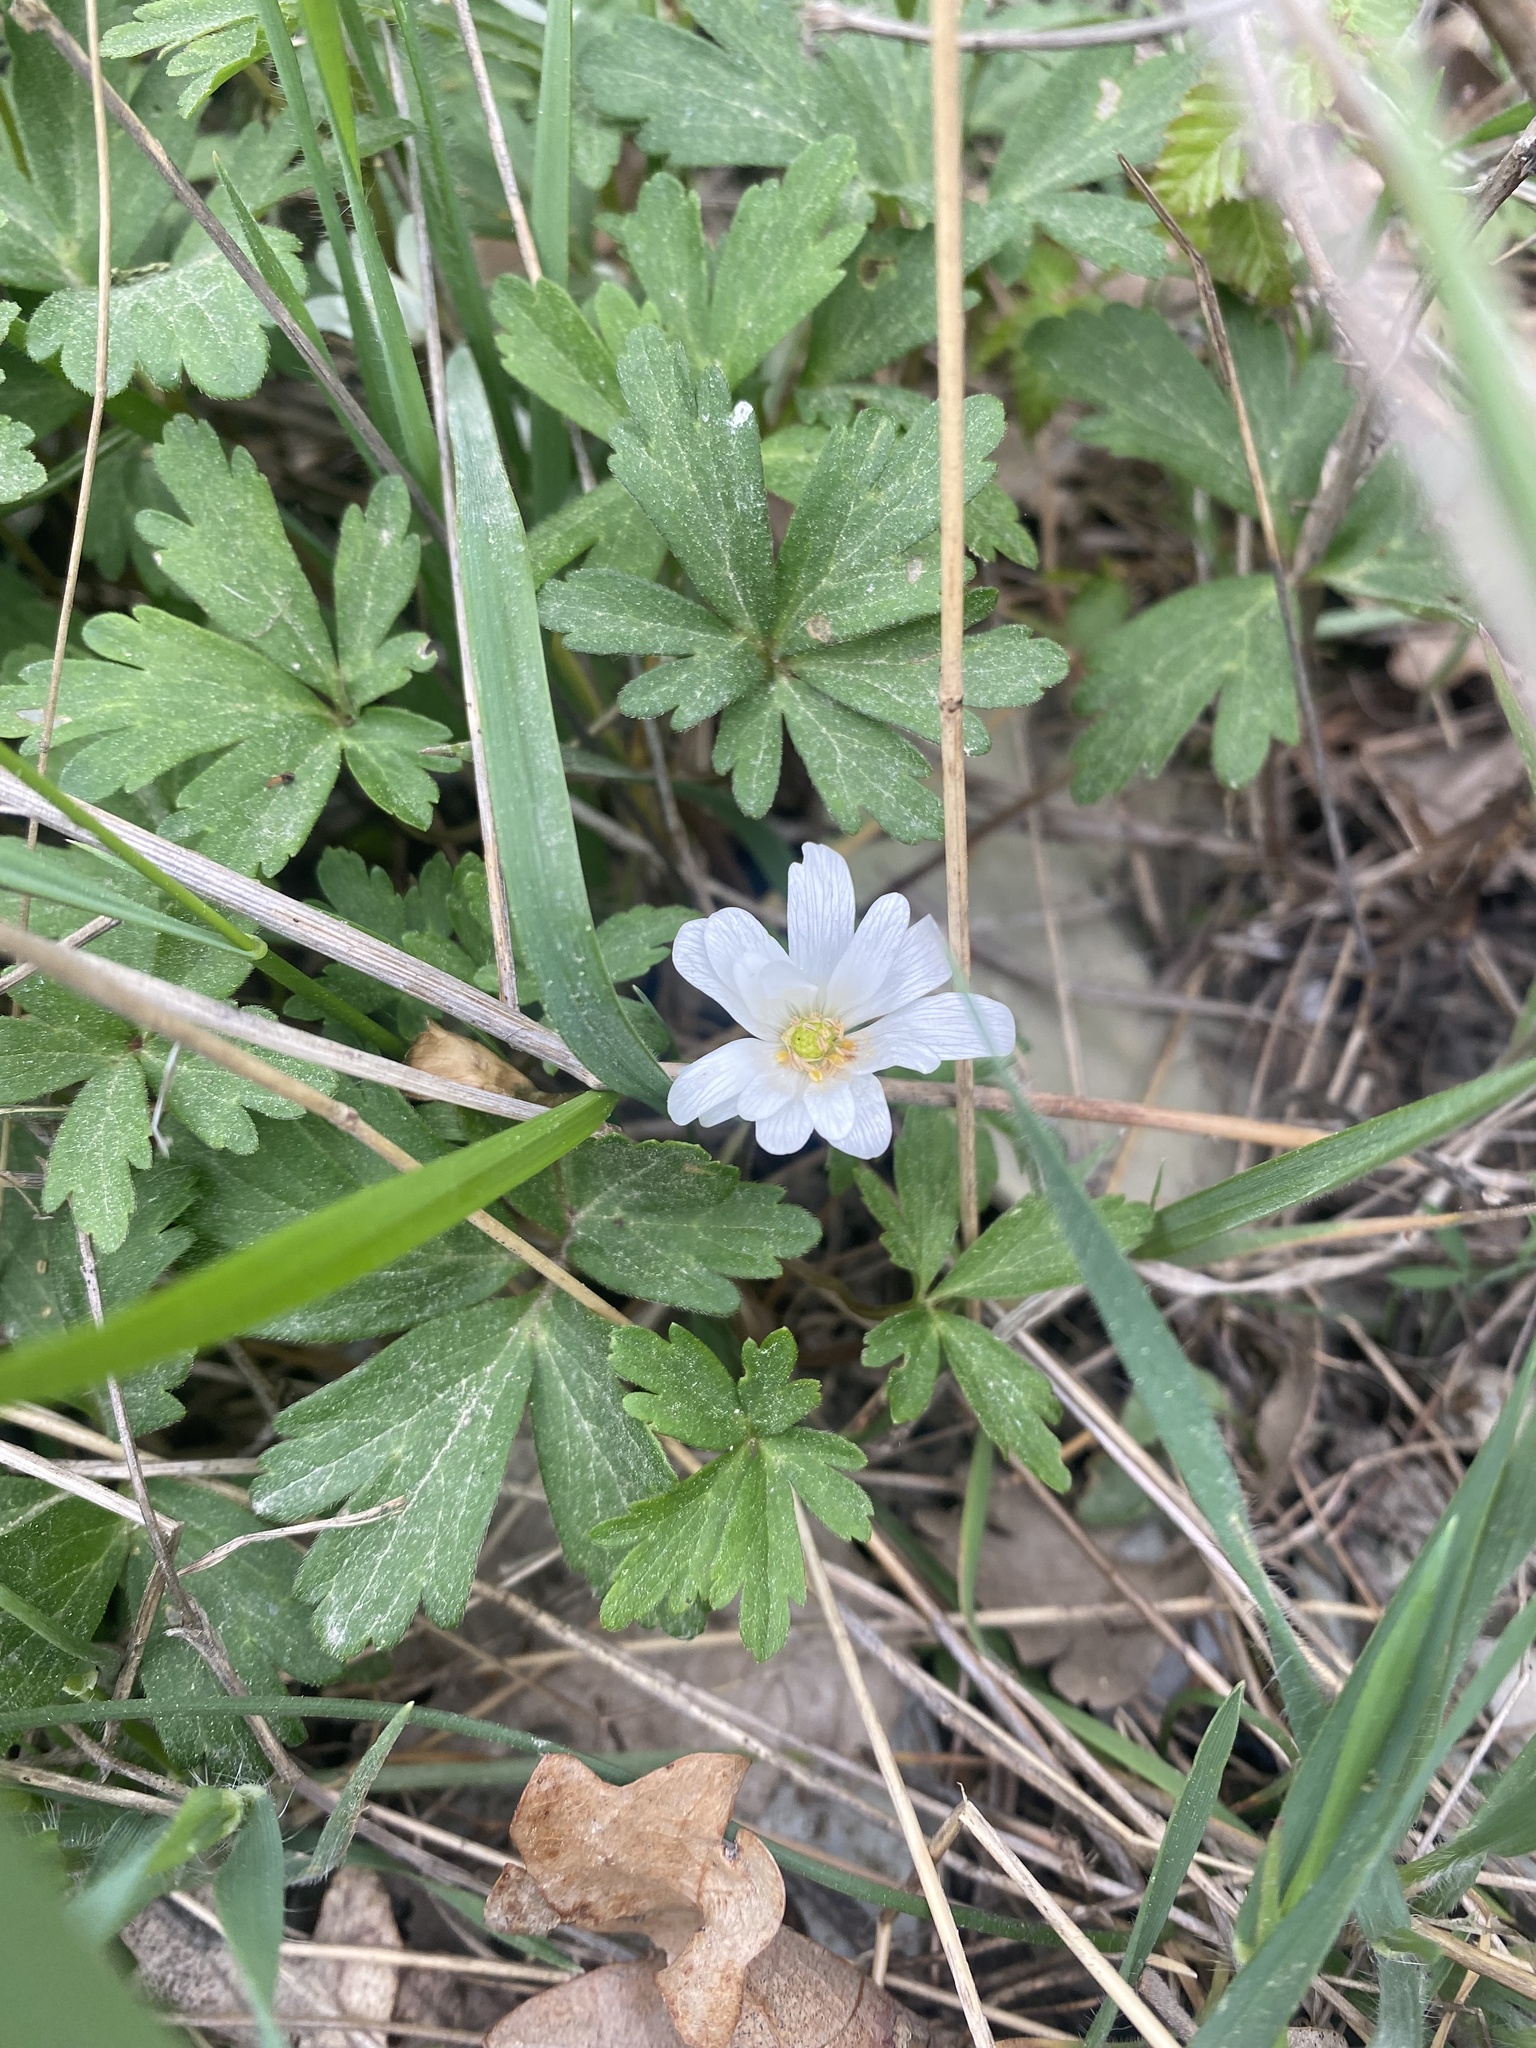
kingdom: Plantae
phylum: Tracheophyta
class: Magnoliopsida
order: Ranunculales
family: Ranunculaceae
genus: Anemone
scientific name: Anemone blanda
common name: Balkan anemone
